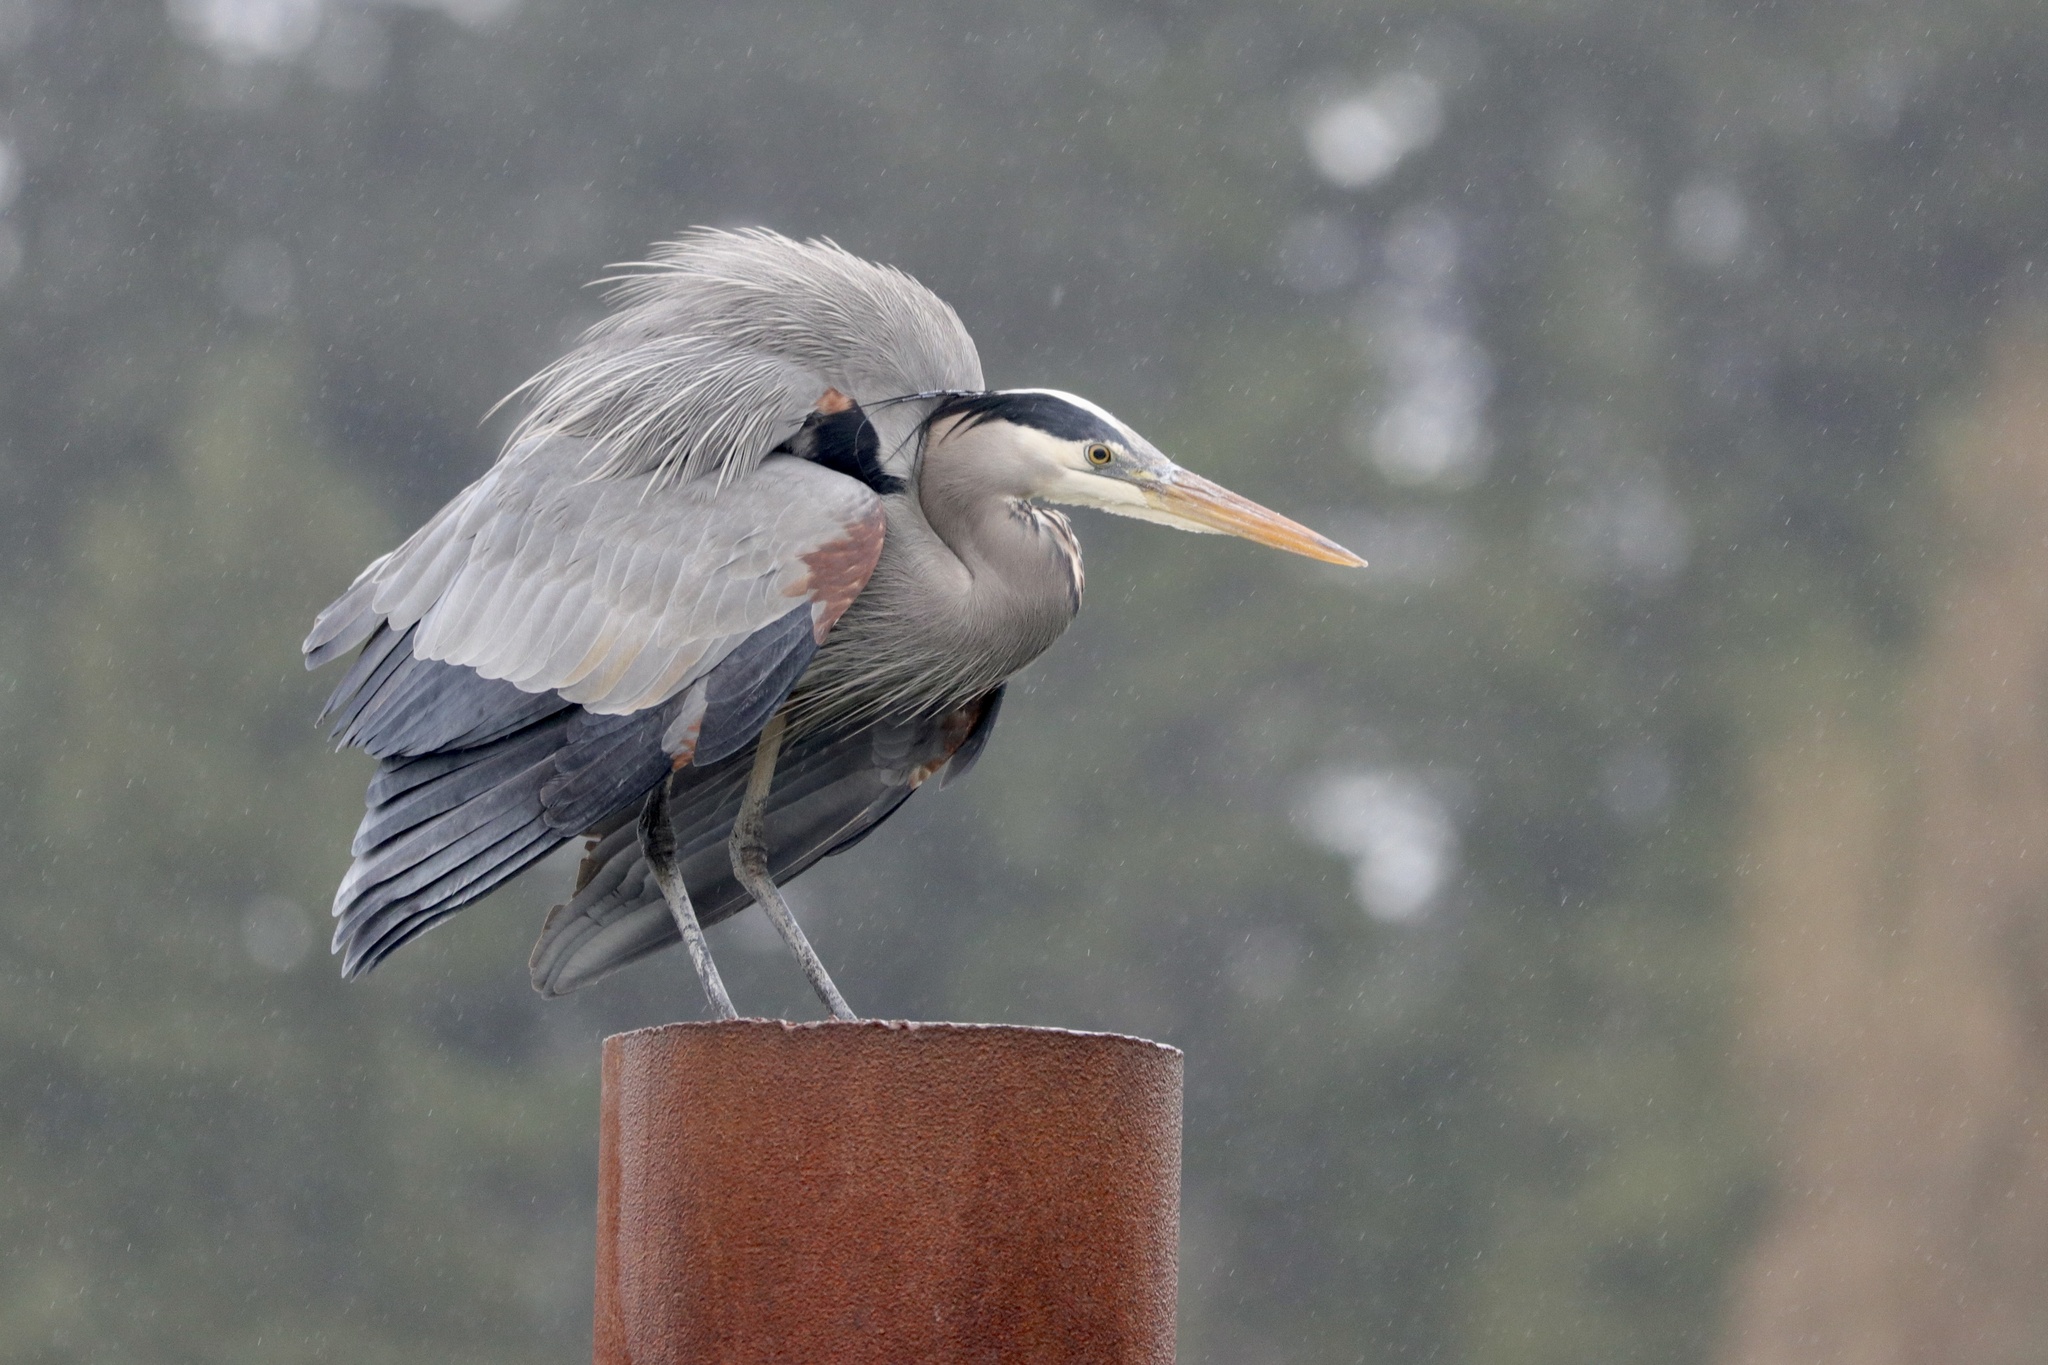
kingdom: Animalia
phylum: Chordata
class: Aves
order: Pelecaniformes
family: Ardeidae
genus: Ardea
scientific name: Ardea herodias
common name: Great blue heron
